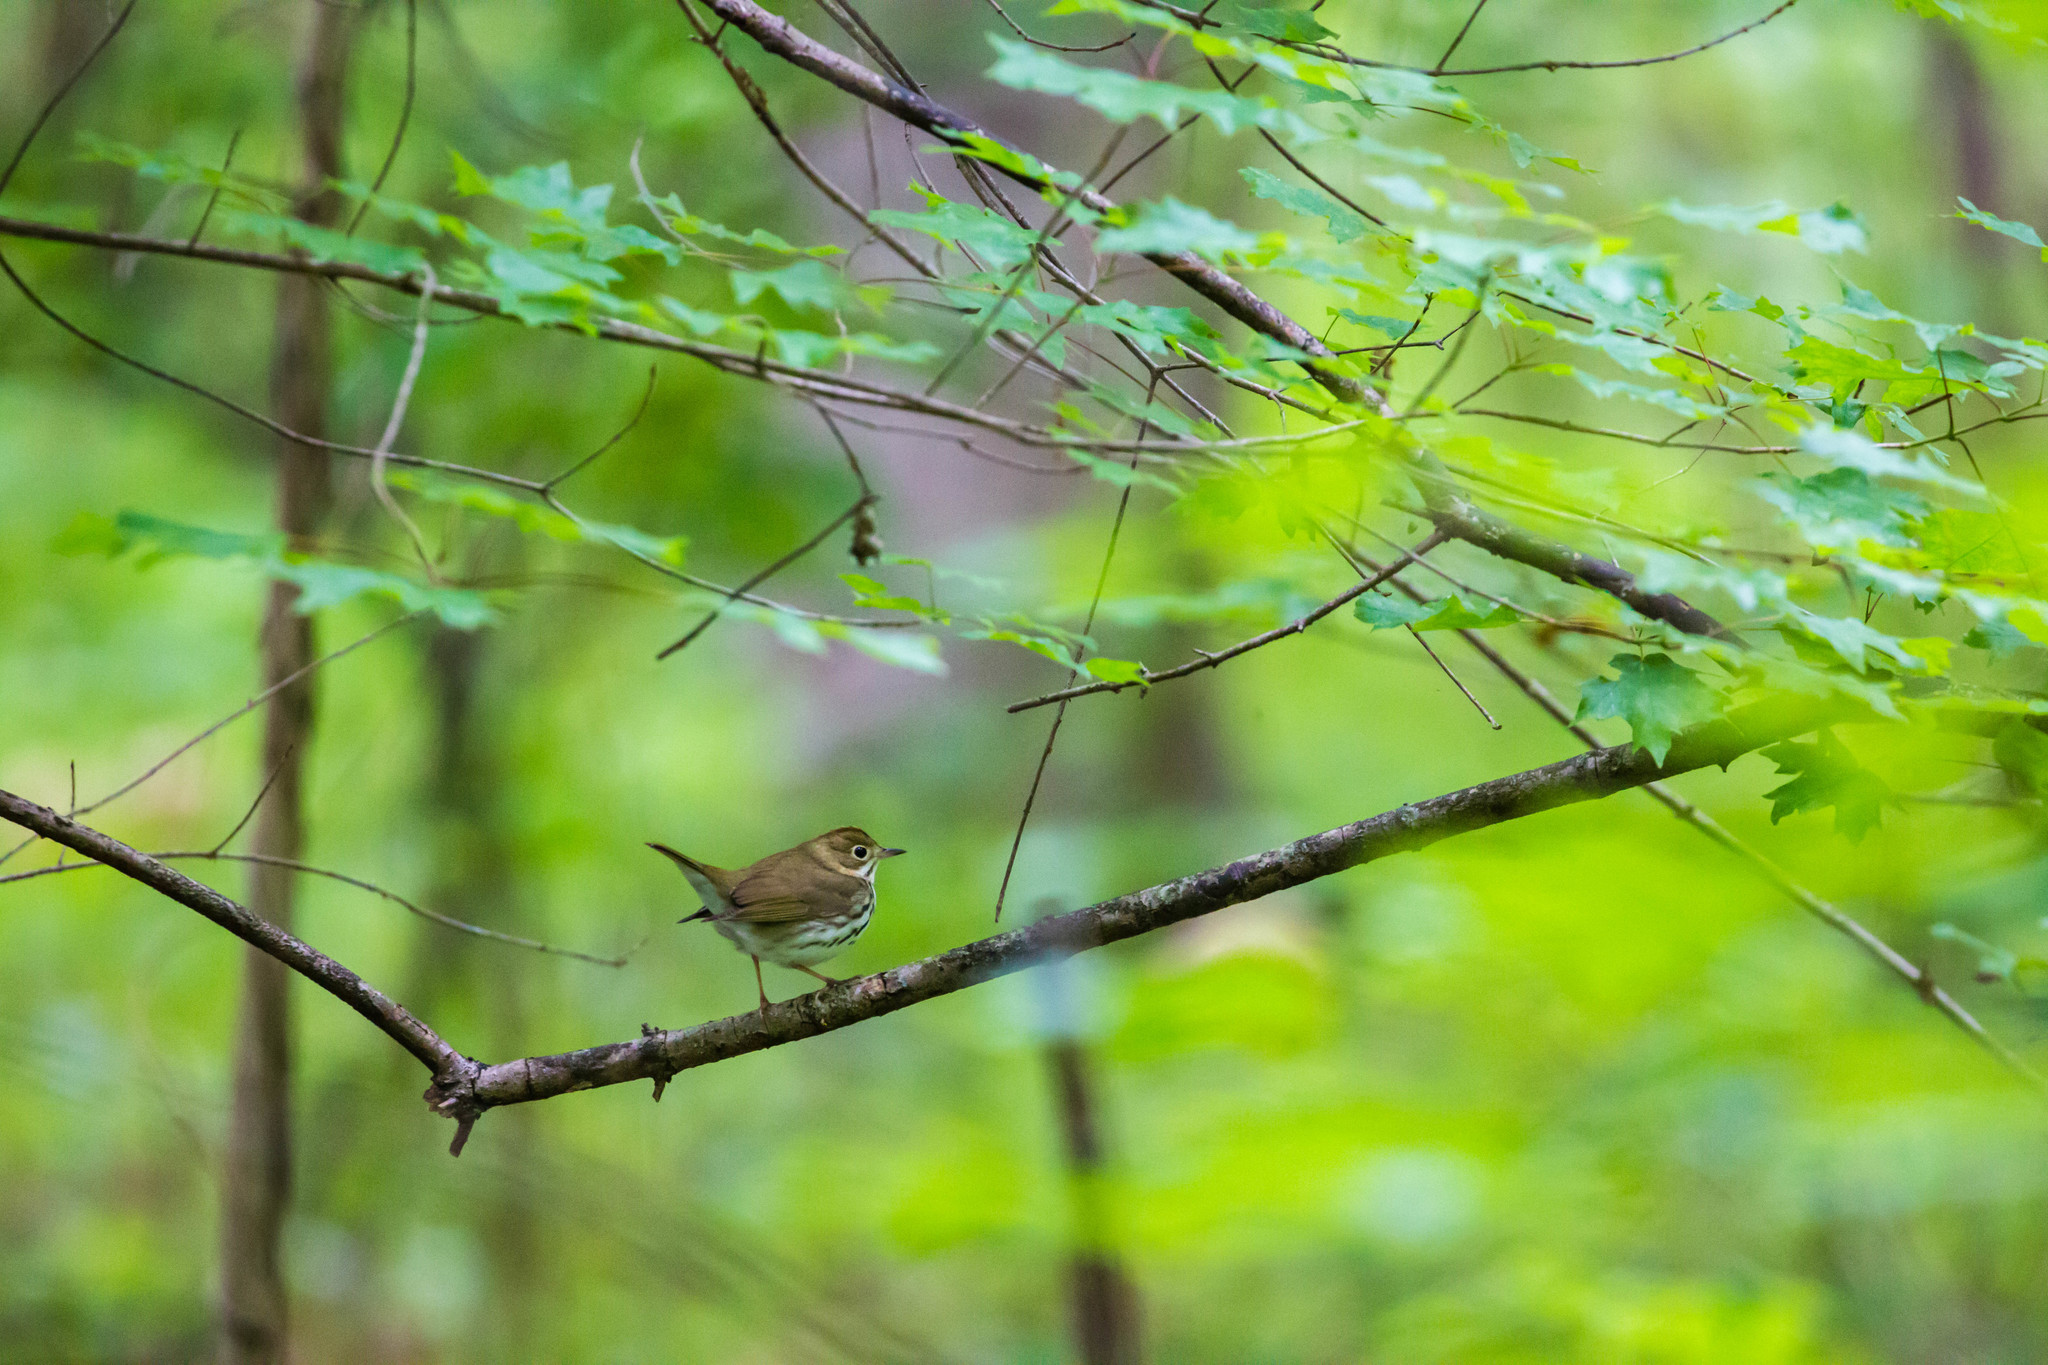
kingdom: Animalia
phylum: Chordata
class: Aves
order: Passeriformes
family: Parulidae
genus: Seiurus
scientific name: Seiurus aurocapilla
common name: Ovenbird
